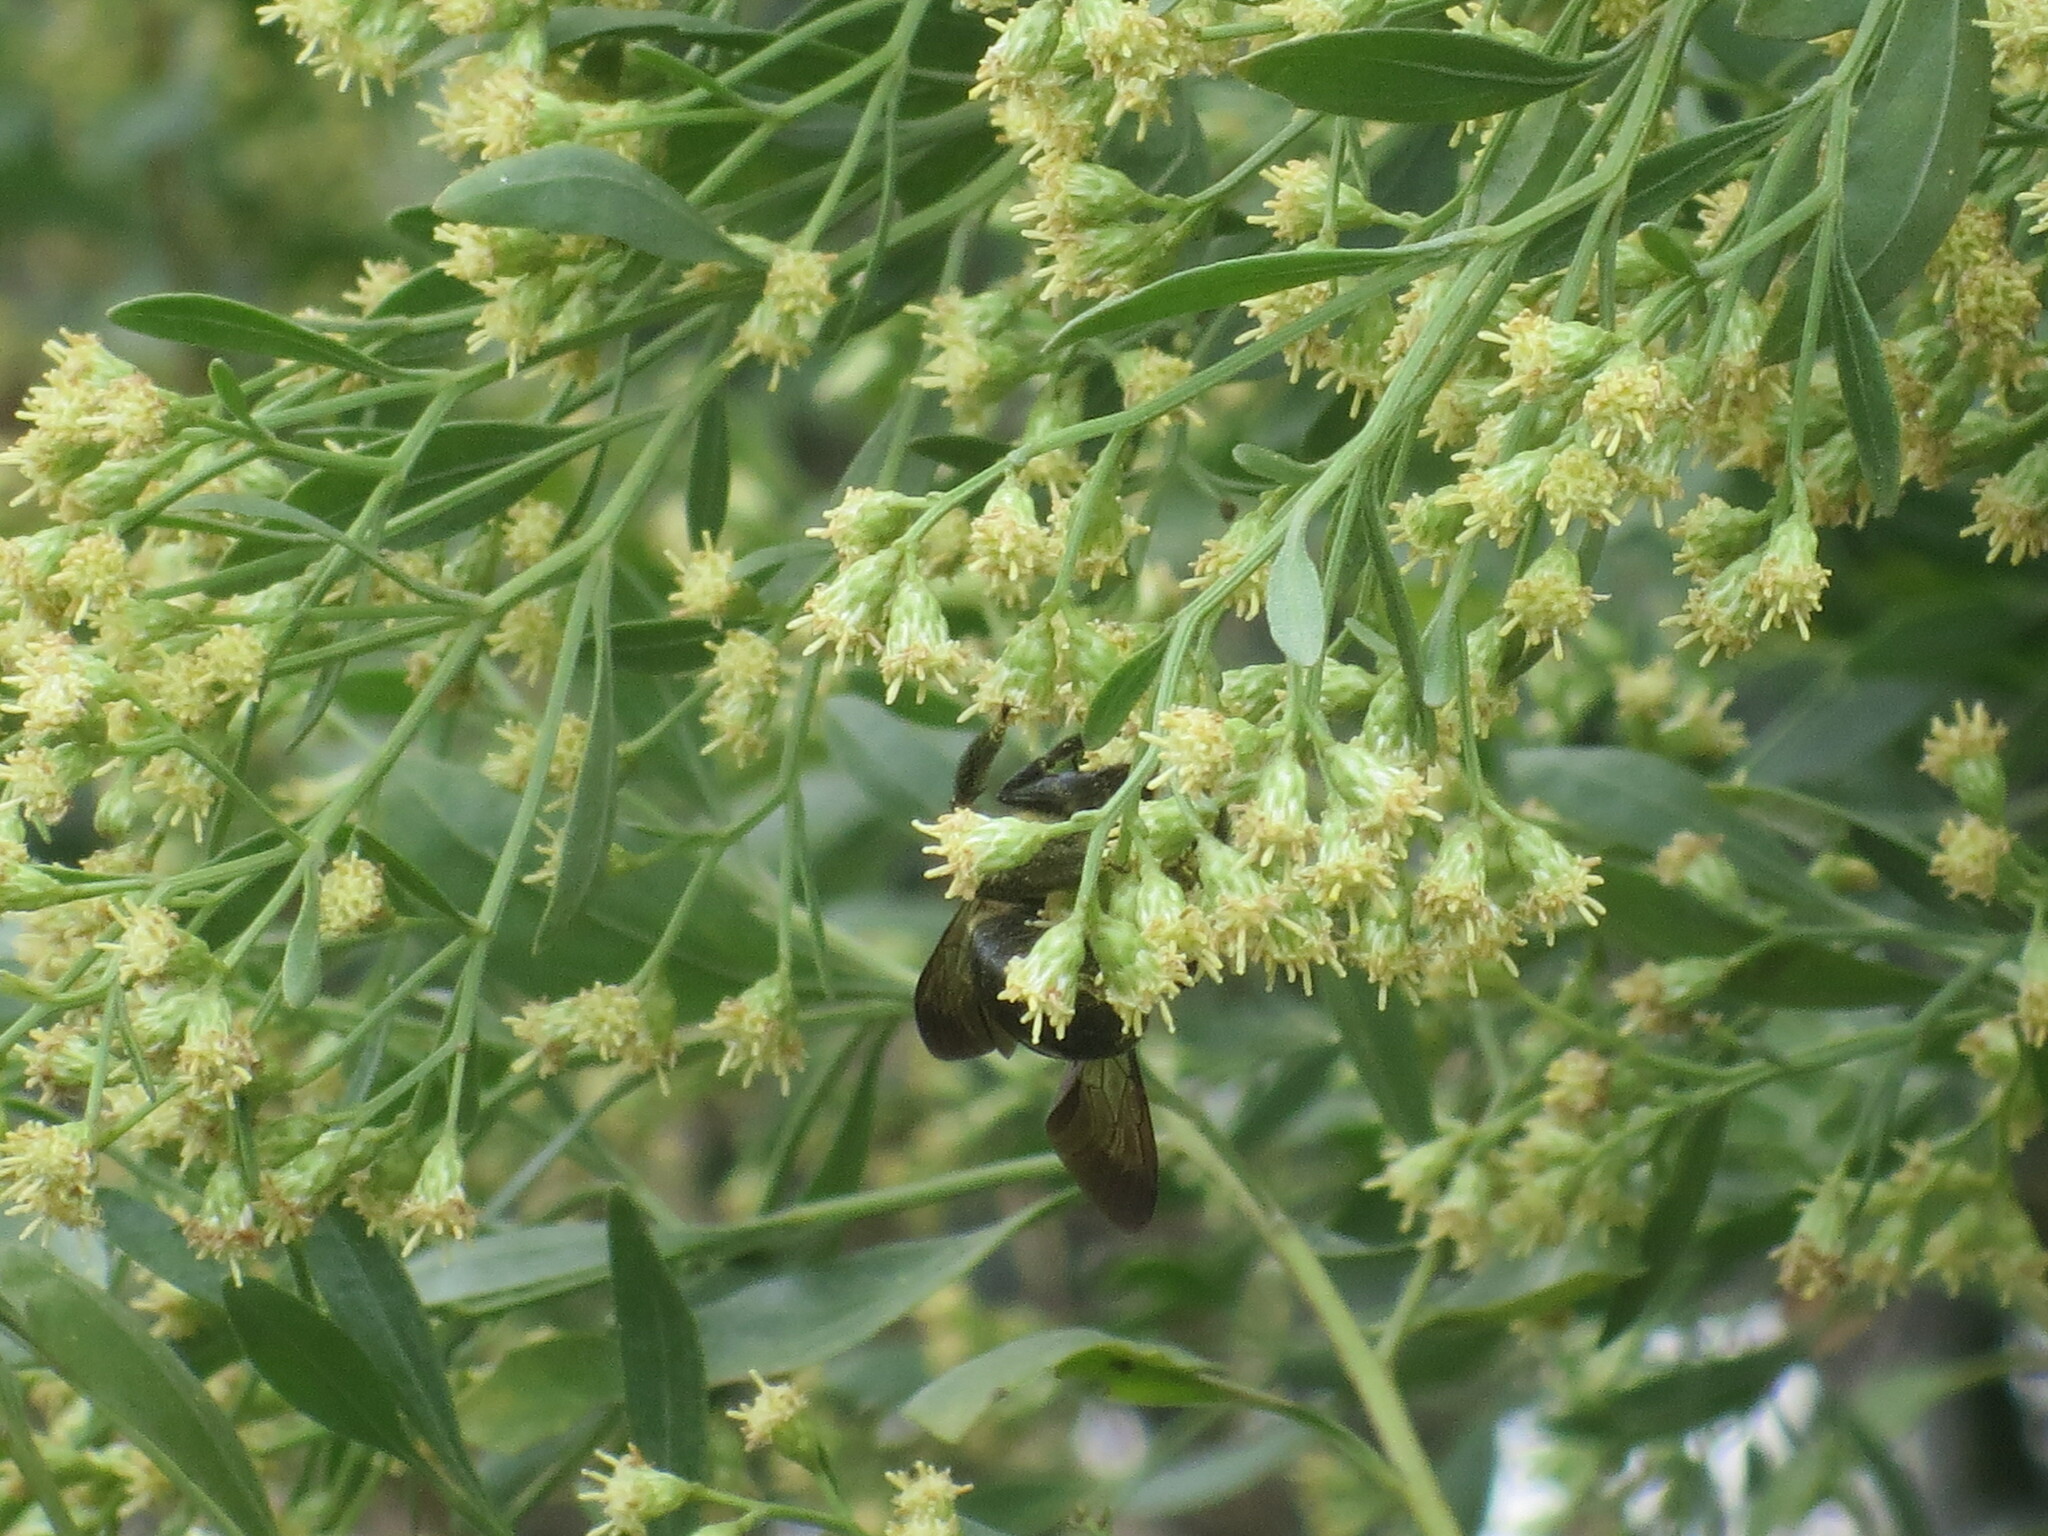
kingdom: Animalia
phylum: Arthropoda
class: Insecta
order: Hymenoptera
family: Apidae
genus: Xylocopa
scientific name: Xylocopa virginica
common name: Carpenter bee
